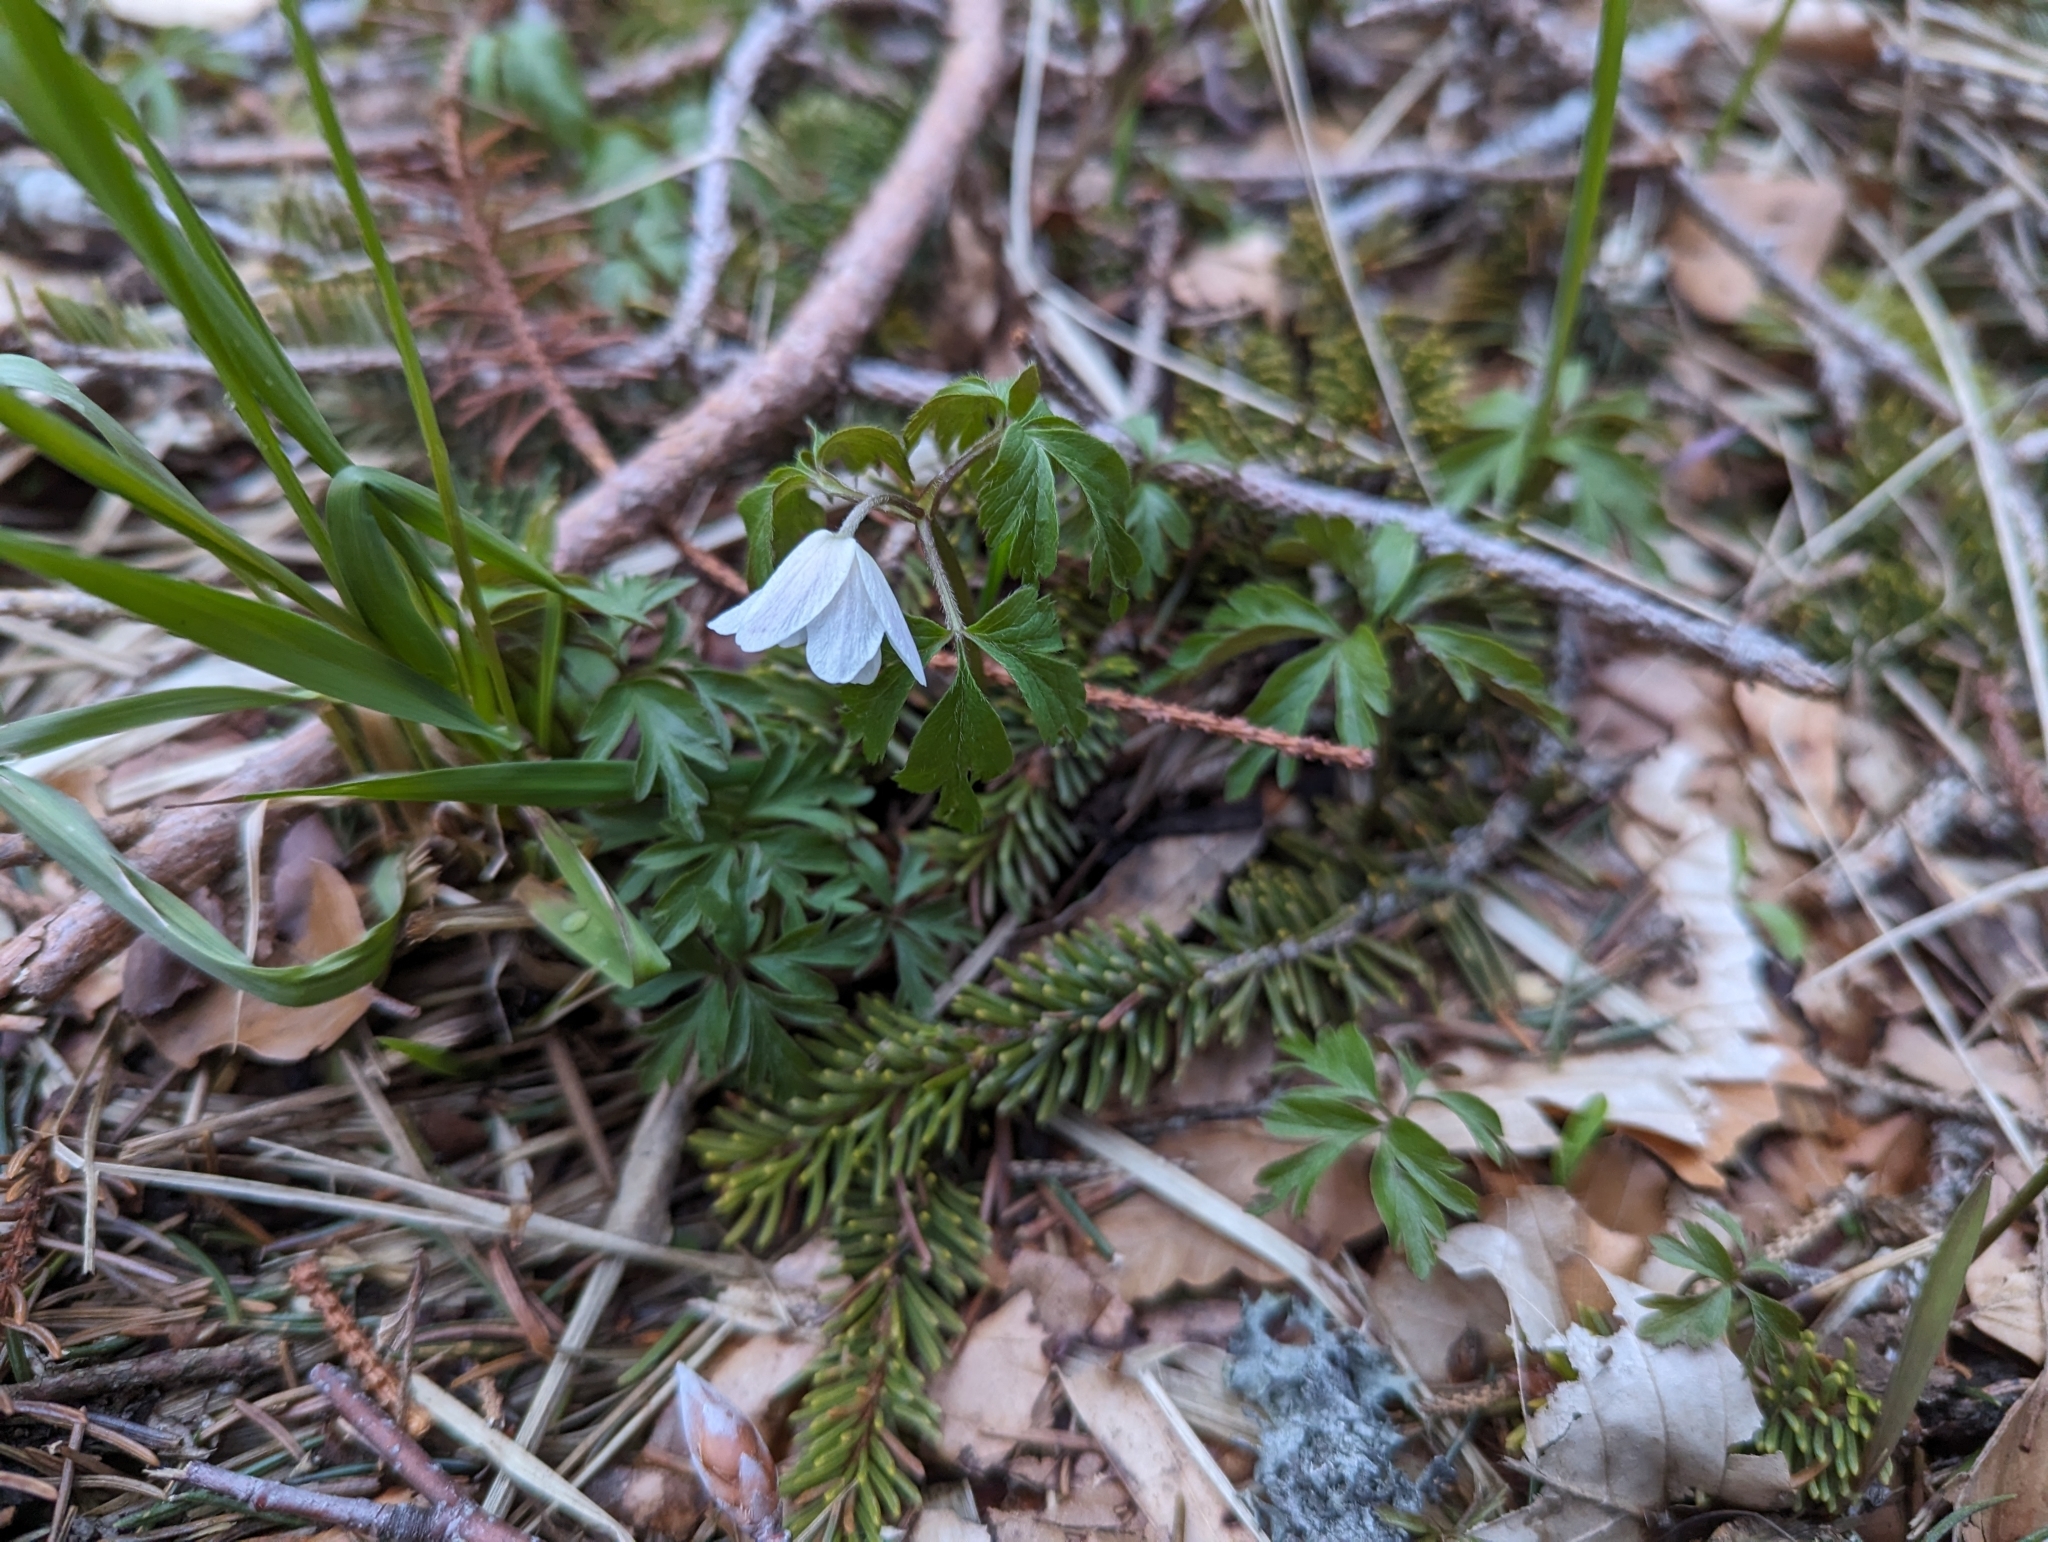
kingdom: Plantae
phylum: Tracheophyta
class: Magnoliopsida
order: Ranunculales
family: Ranunculaceae
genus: Anemone
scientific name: Anemone nemorosa
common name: Wood anemone
